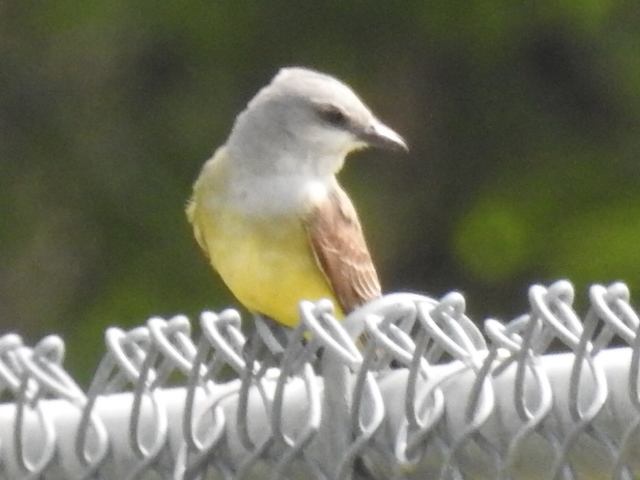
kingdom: Animalia
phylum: Chordata
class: Aves
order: Passeriformes
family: Tyrannidae
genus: Tyrannus
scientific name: Tyrannus verticalis
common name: Western kingbird
